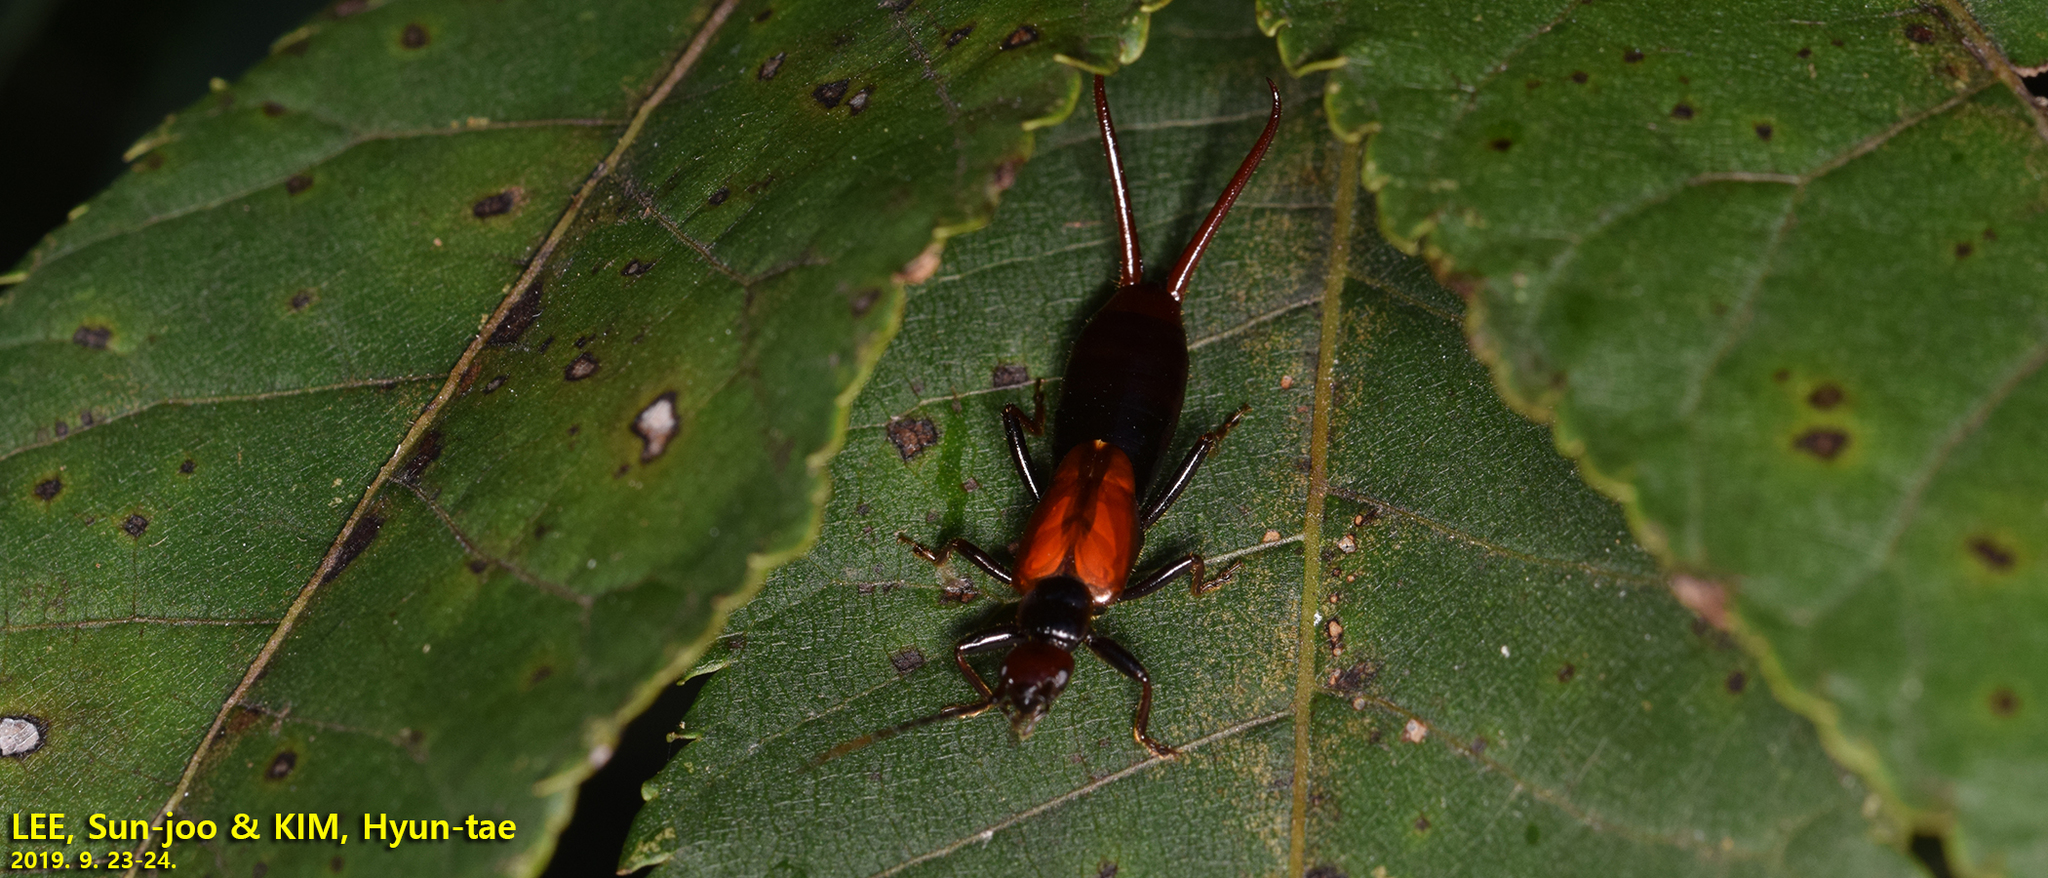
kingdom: Animalia
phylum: Arthropoda
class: Insecta
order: Dermaptera
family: Forficulidae
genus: Timomenus
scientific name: Timomenus komarovi
